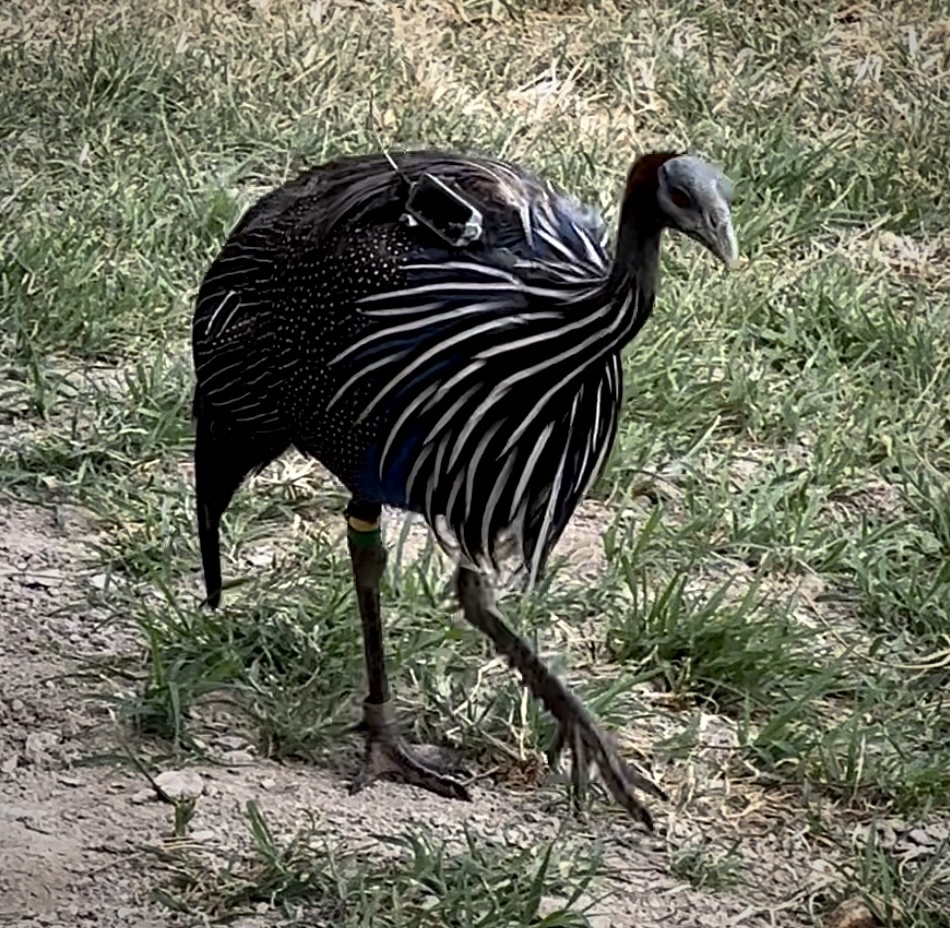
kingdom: Animalia
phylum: Chordata
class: Aves
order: Galliformes
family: Numididae
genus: Acryllium
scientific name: Acryllium vulturinum
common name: Vulturine guineafowl
